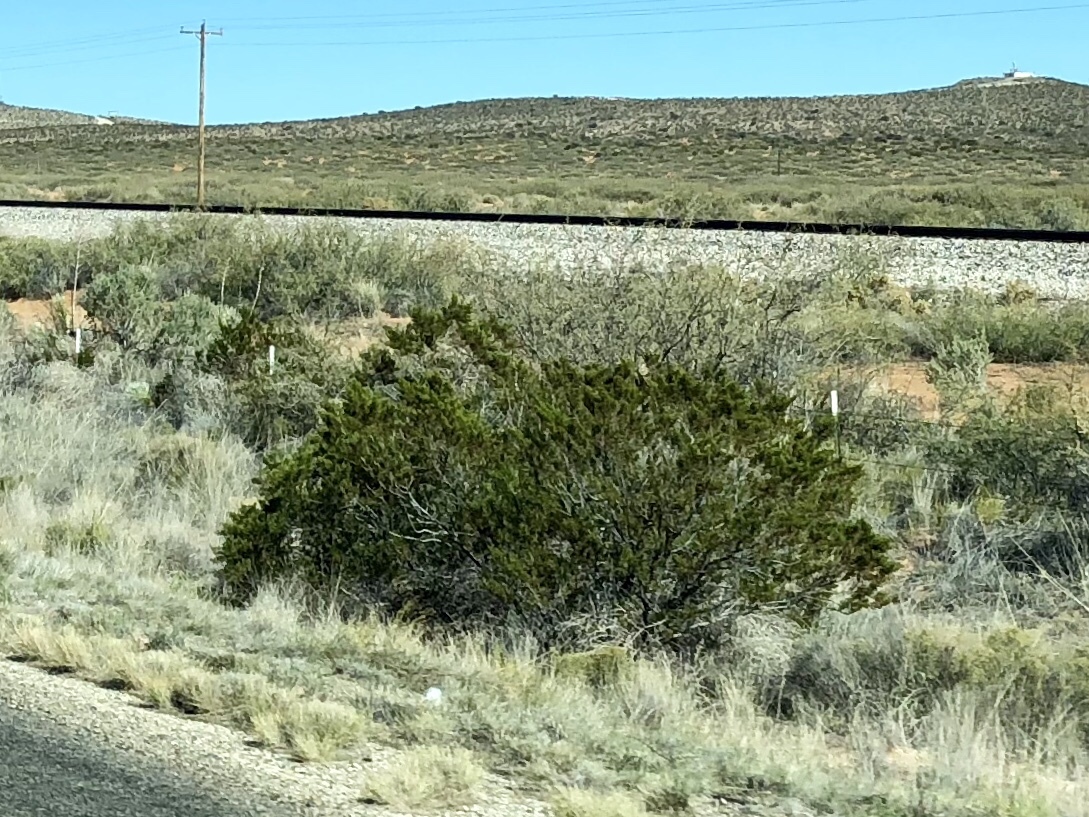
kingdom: Plantae
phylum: Tracheophyta
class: Magnoliopsida
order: Zygophyllales
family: Zygophyllaceae
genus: Larrea
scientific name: Larrea tridentata
